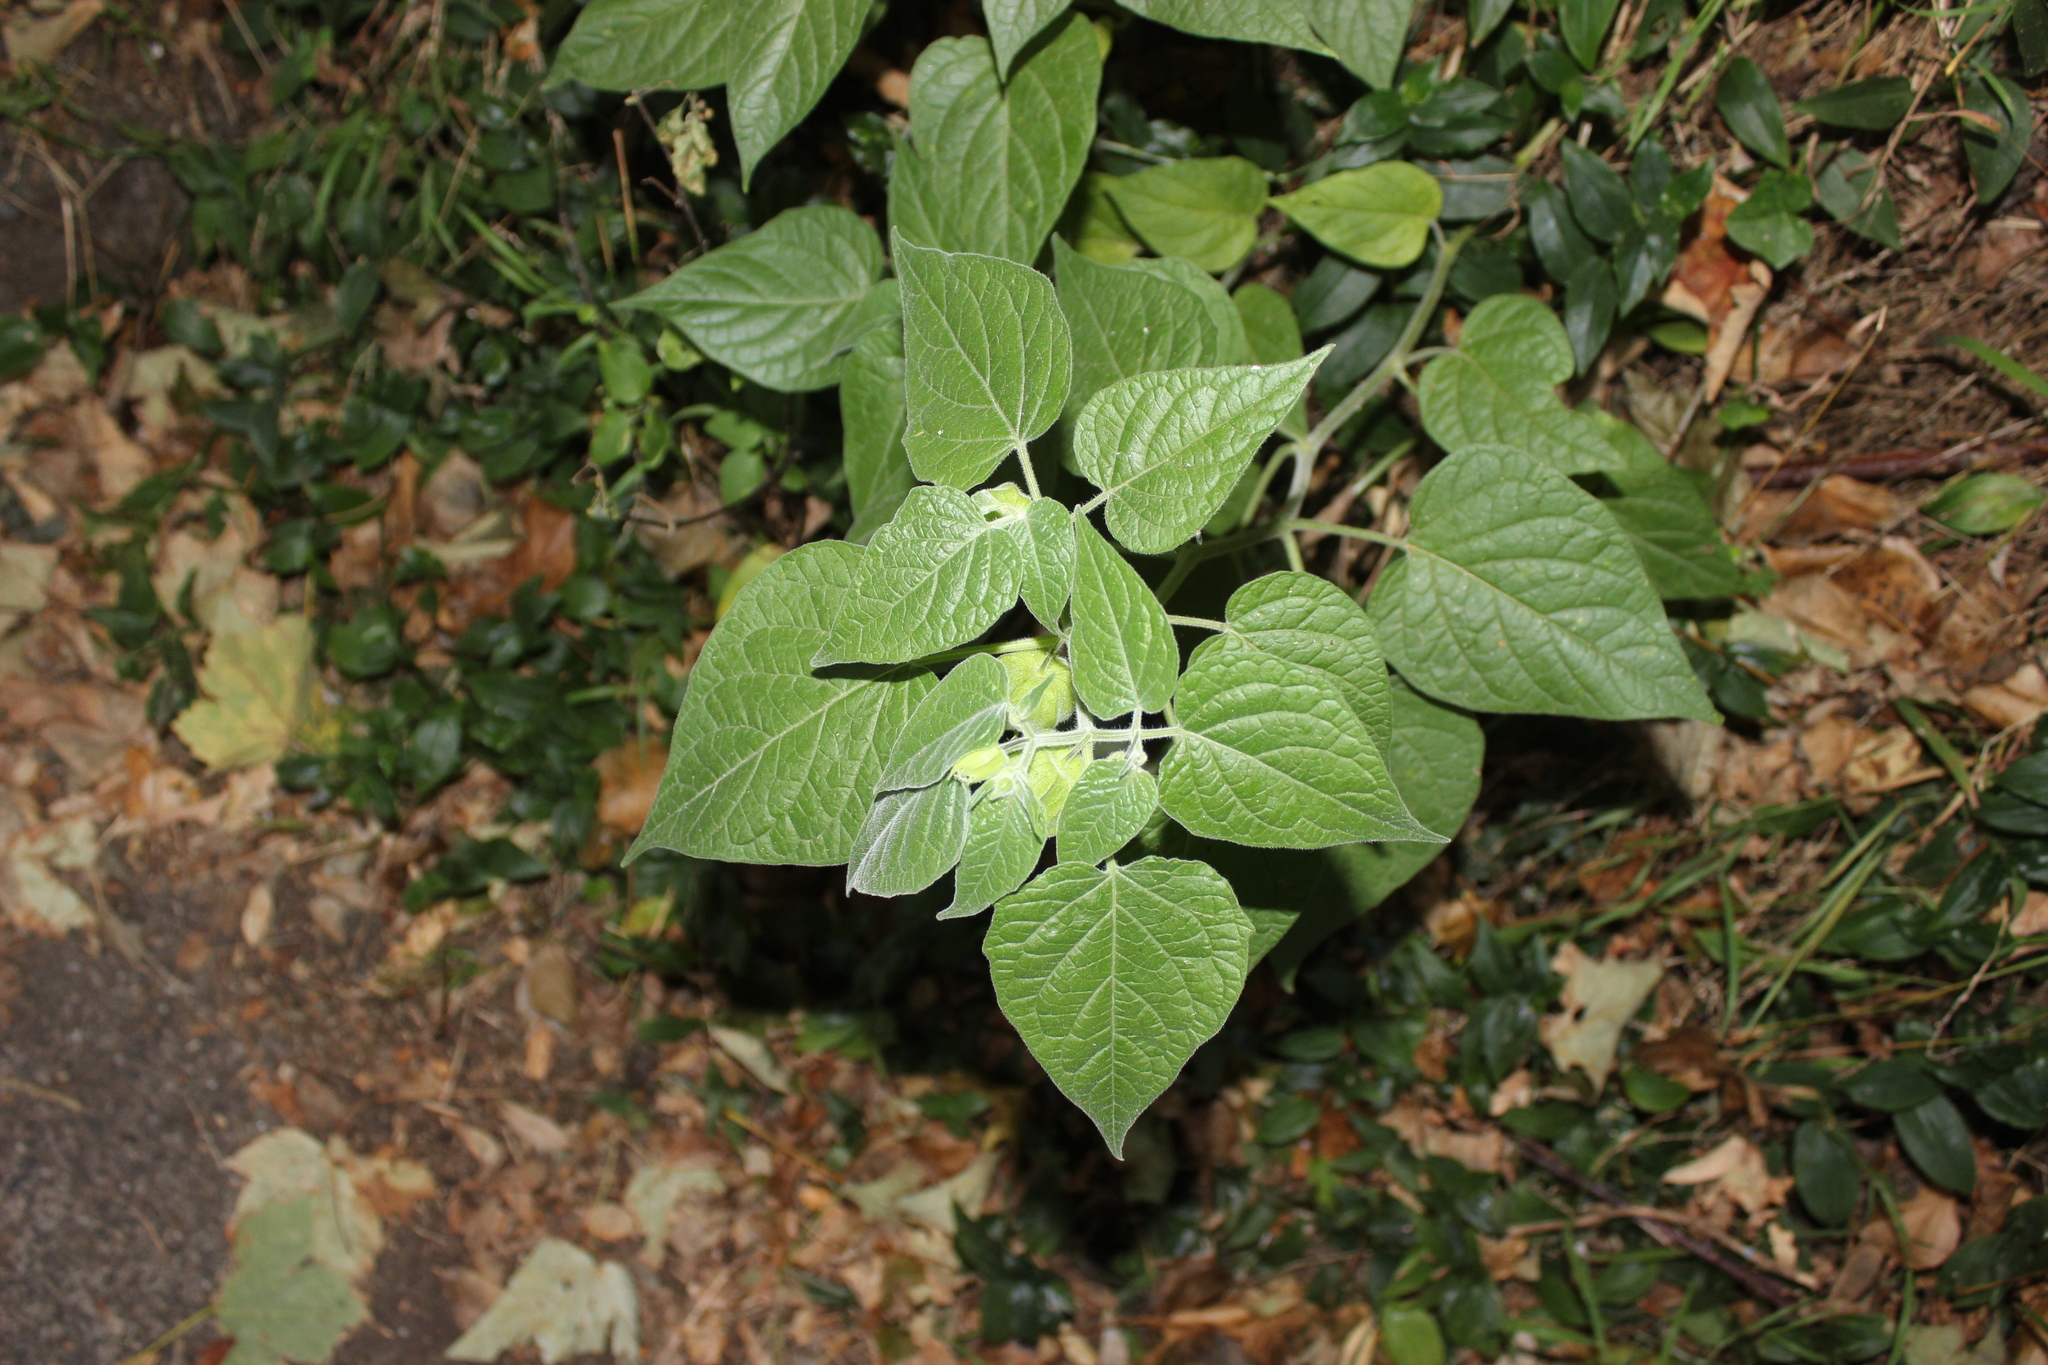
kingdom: Plantae
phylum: Tracheophyta
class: Magnoliopsida
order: Solanales
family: Solanaceae
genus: Physalis
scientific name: Physalis peruviana
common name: Cape-gooseberry
